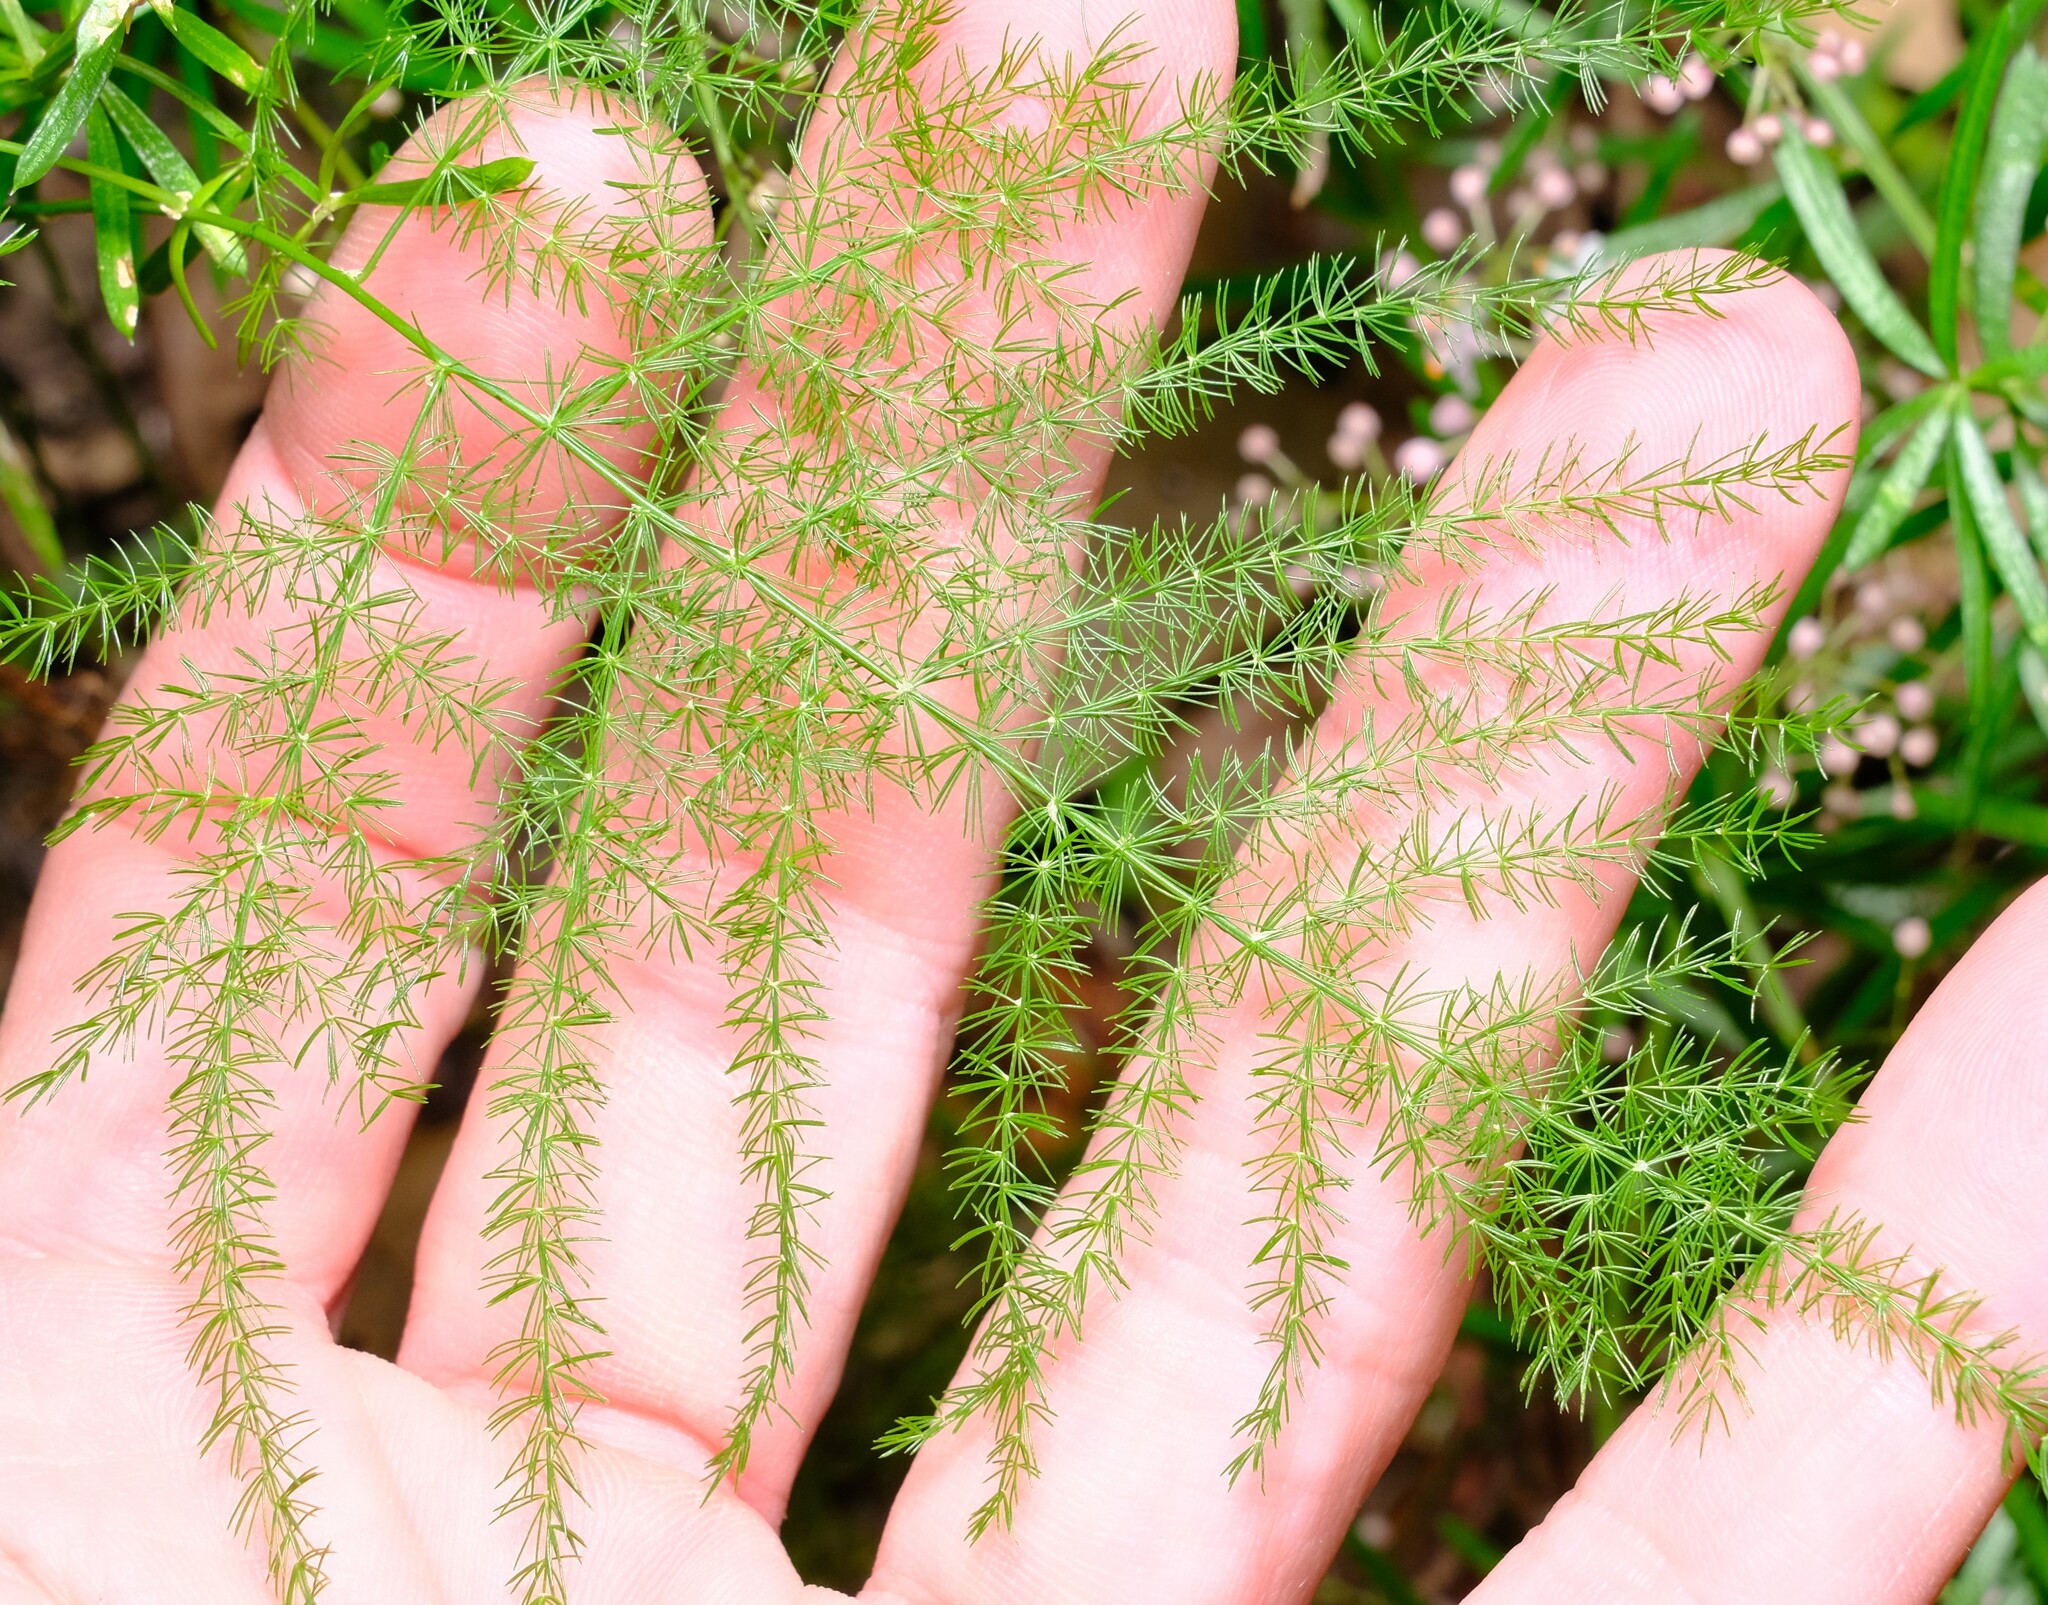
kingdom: Plantae
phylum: Tracheophyta
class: Liliopsida
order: Asparagales
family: Asparagaceae
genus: Asparagus
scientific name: Asparagus setaceus
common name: Common asparagus fern
